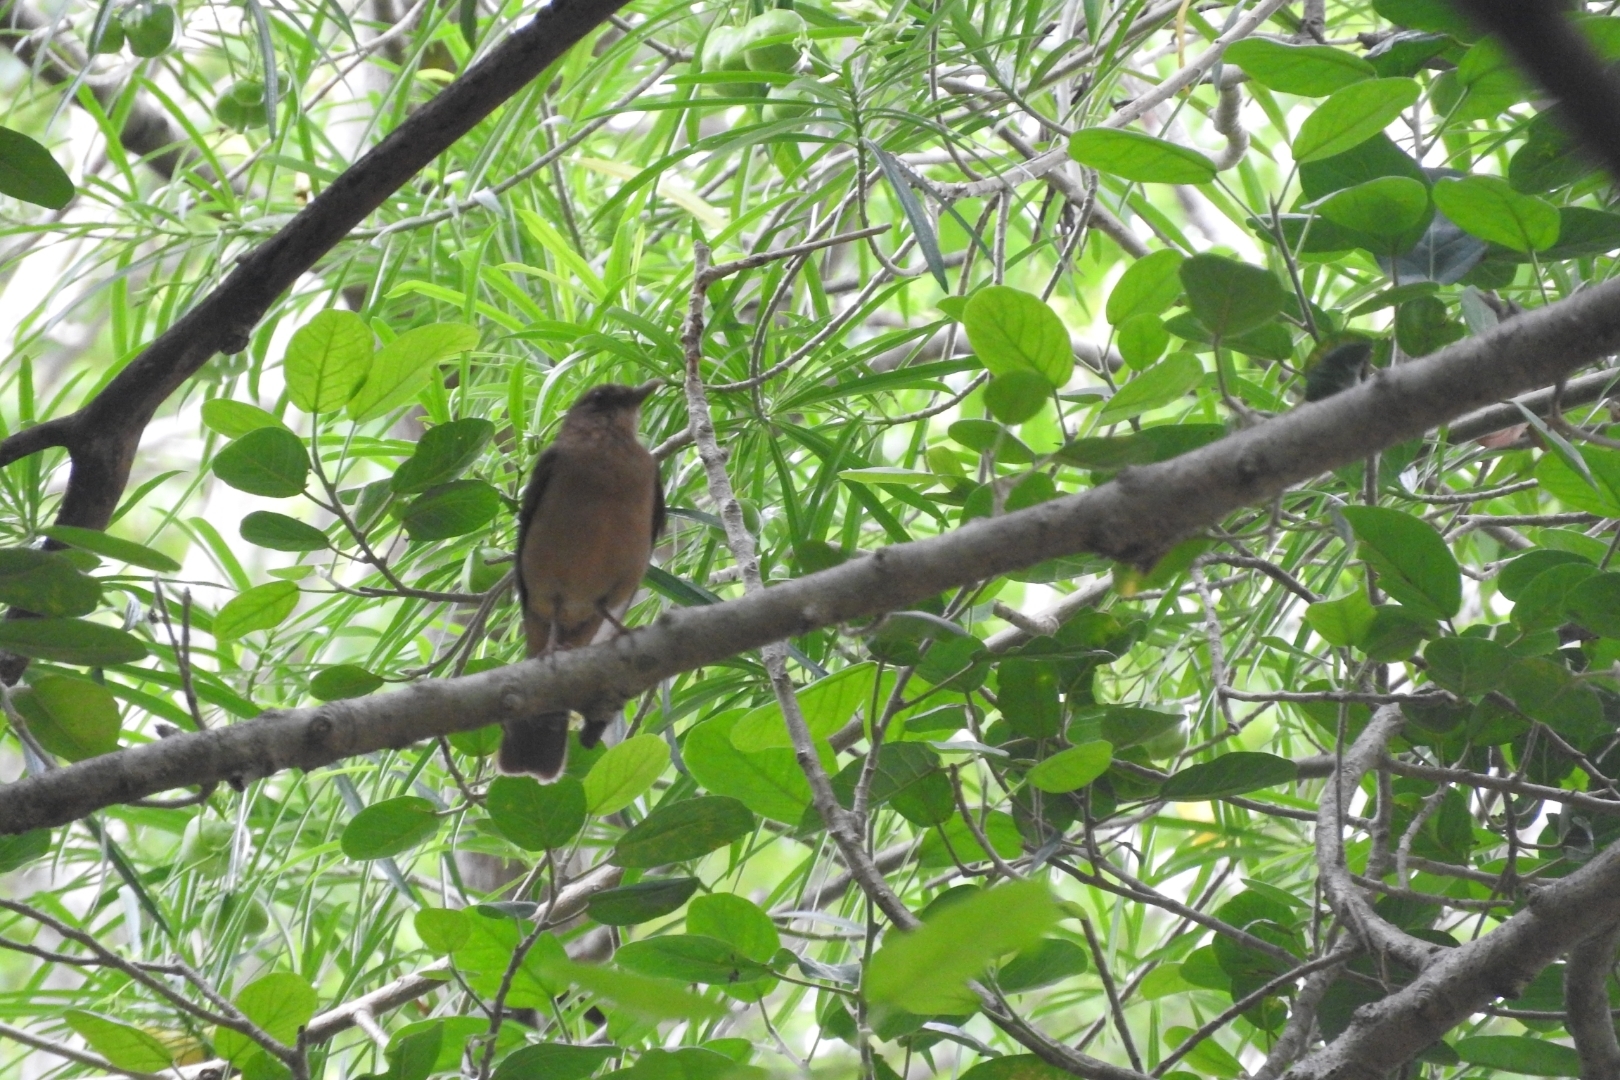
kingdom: Animalia
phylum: Chordata
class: Aves
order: Passeriformes
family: Turdidae
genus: Turdus
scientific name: Turdus grayi
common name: Clay-colored thrush
